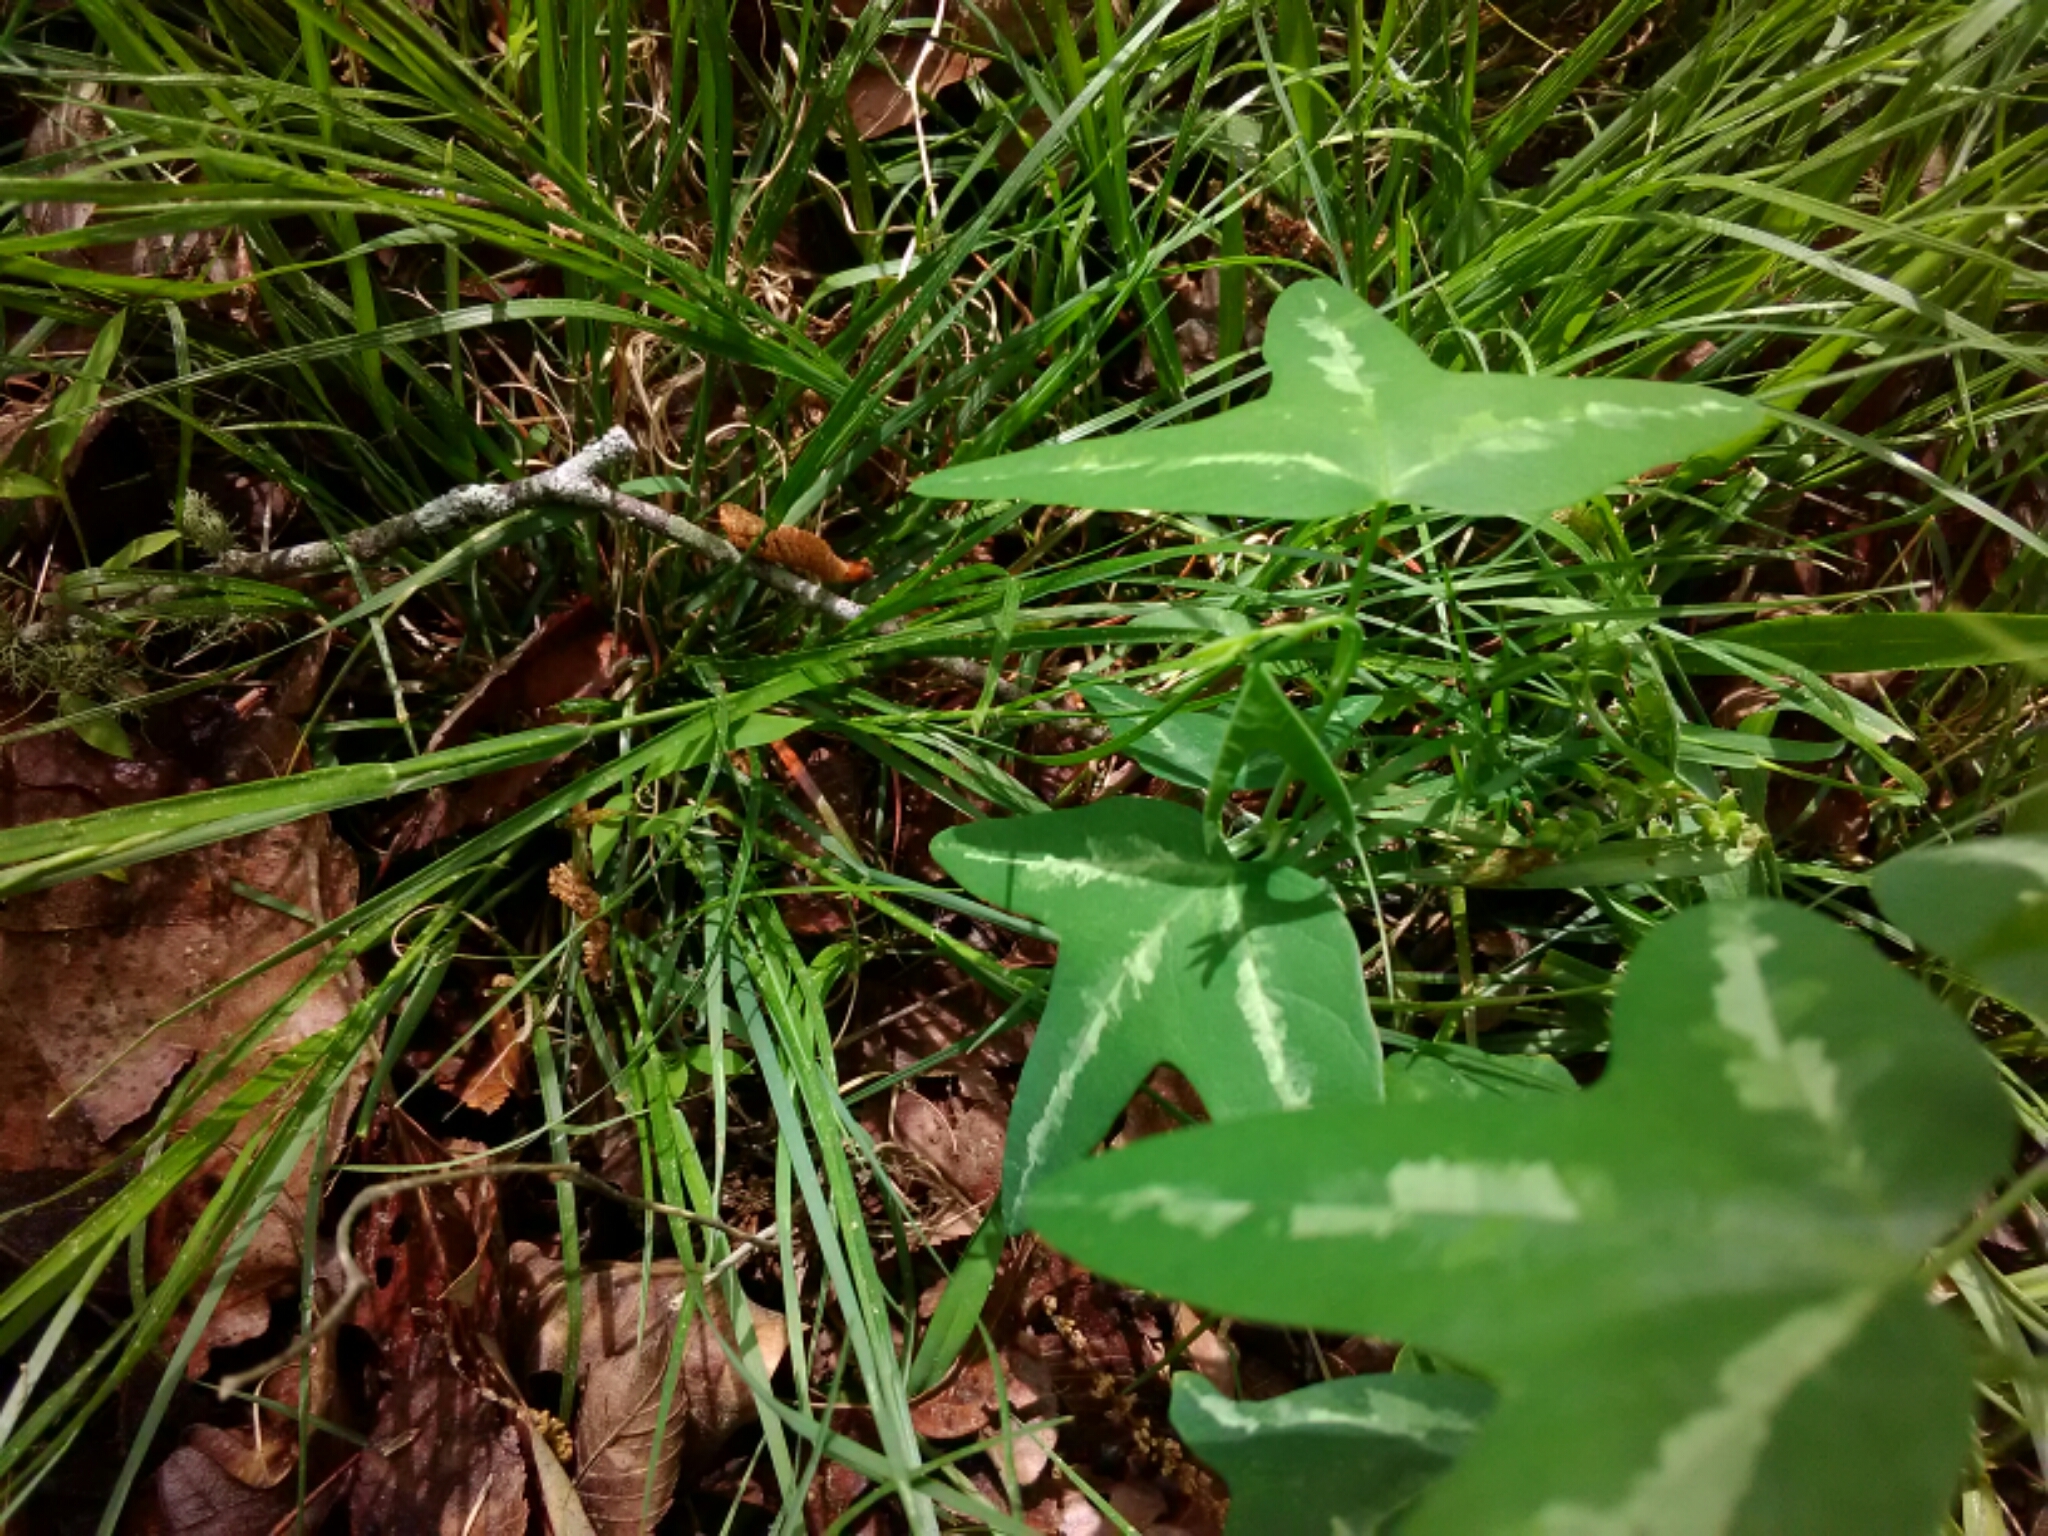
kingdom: Plantae
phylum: Tracheophyta
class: Magnoliopsida
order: Malpighiales
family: Passifloraceae
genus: Passiflora
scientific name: Passiflora lutea
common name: Yellow passionflower
